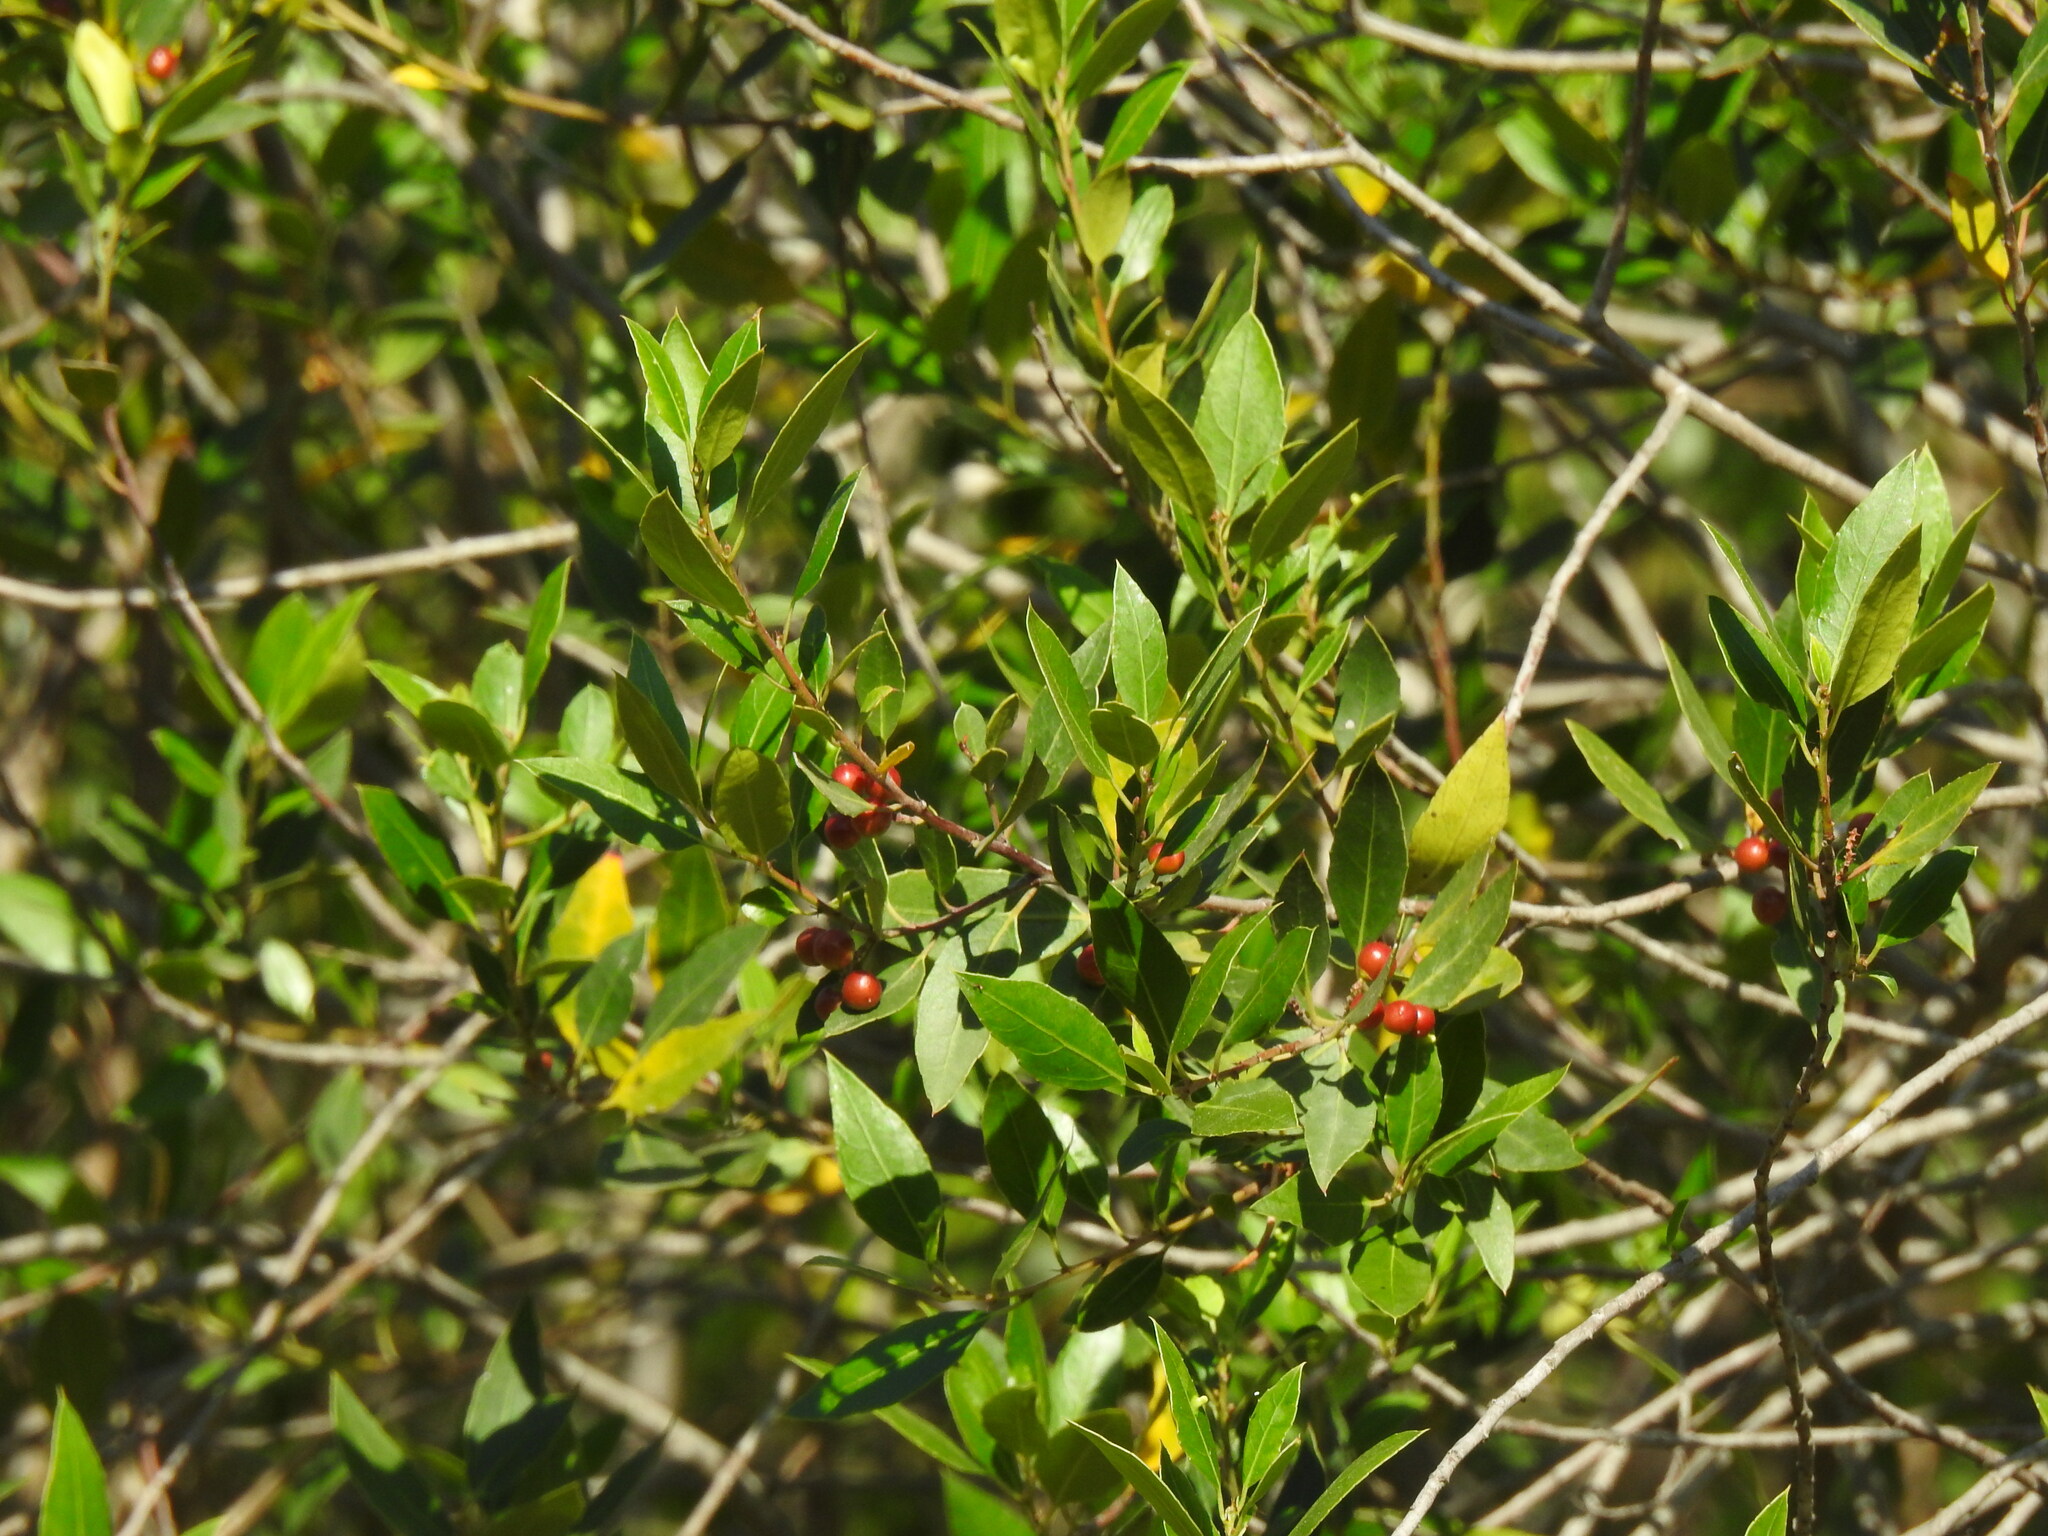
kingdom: Plantae
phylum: Tracheophyta
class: Magnoliopsida
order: Rosales
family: Rhamnaceae
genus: Rhamnus
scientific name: Rhamnus alaternus
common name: Mediterranean buckthorn
